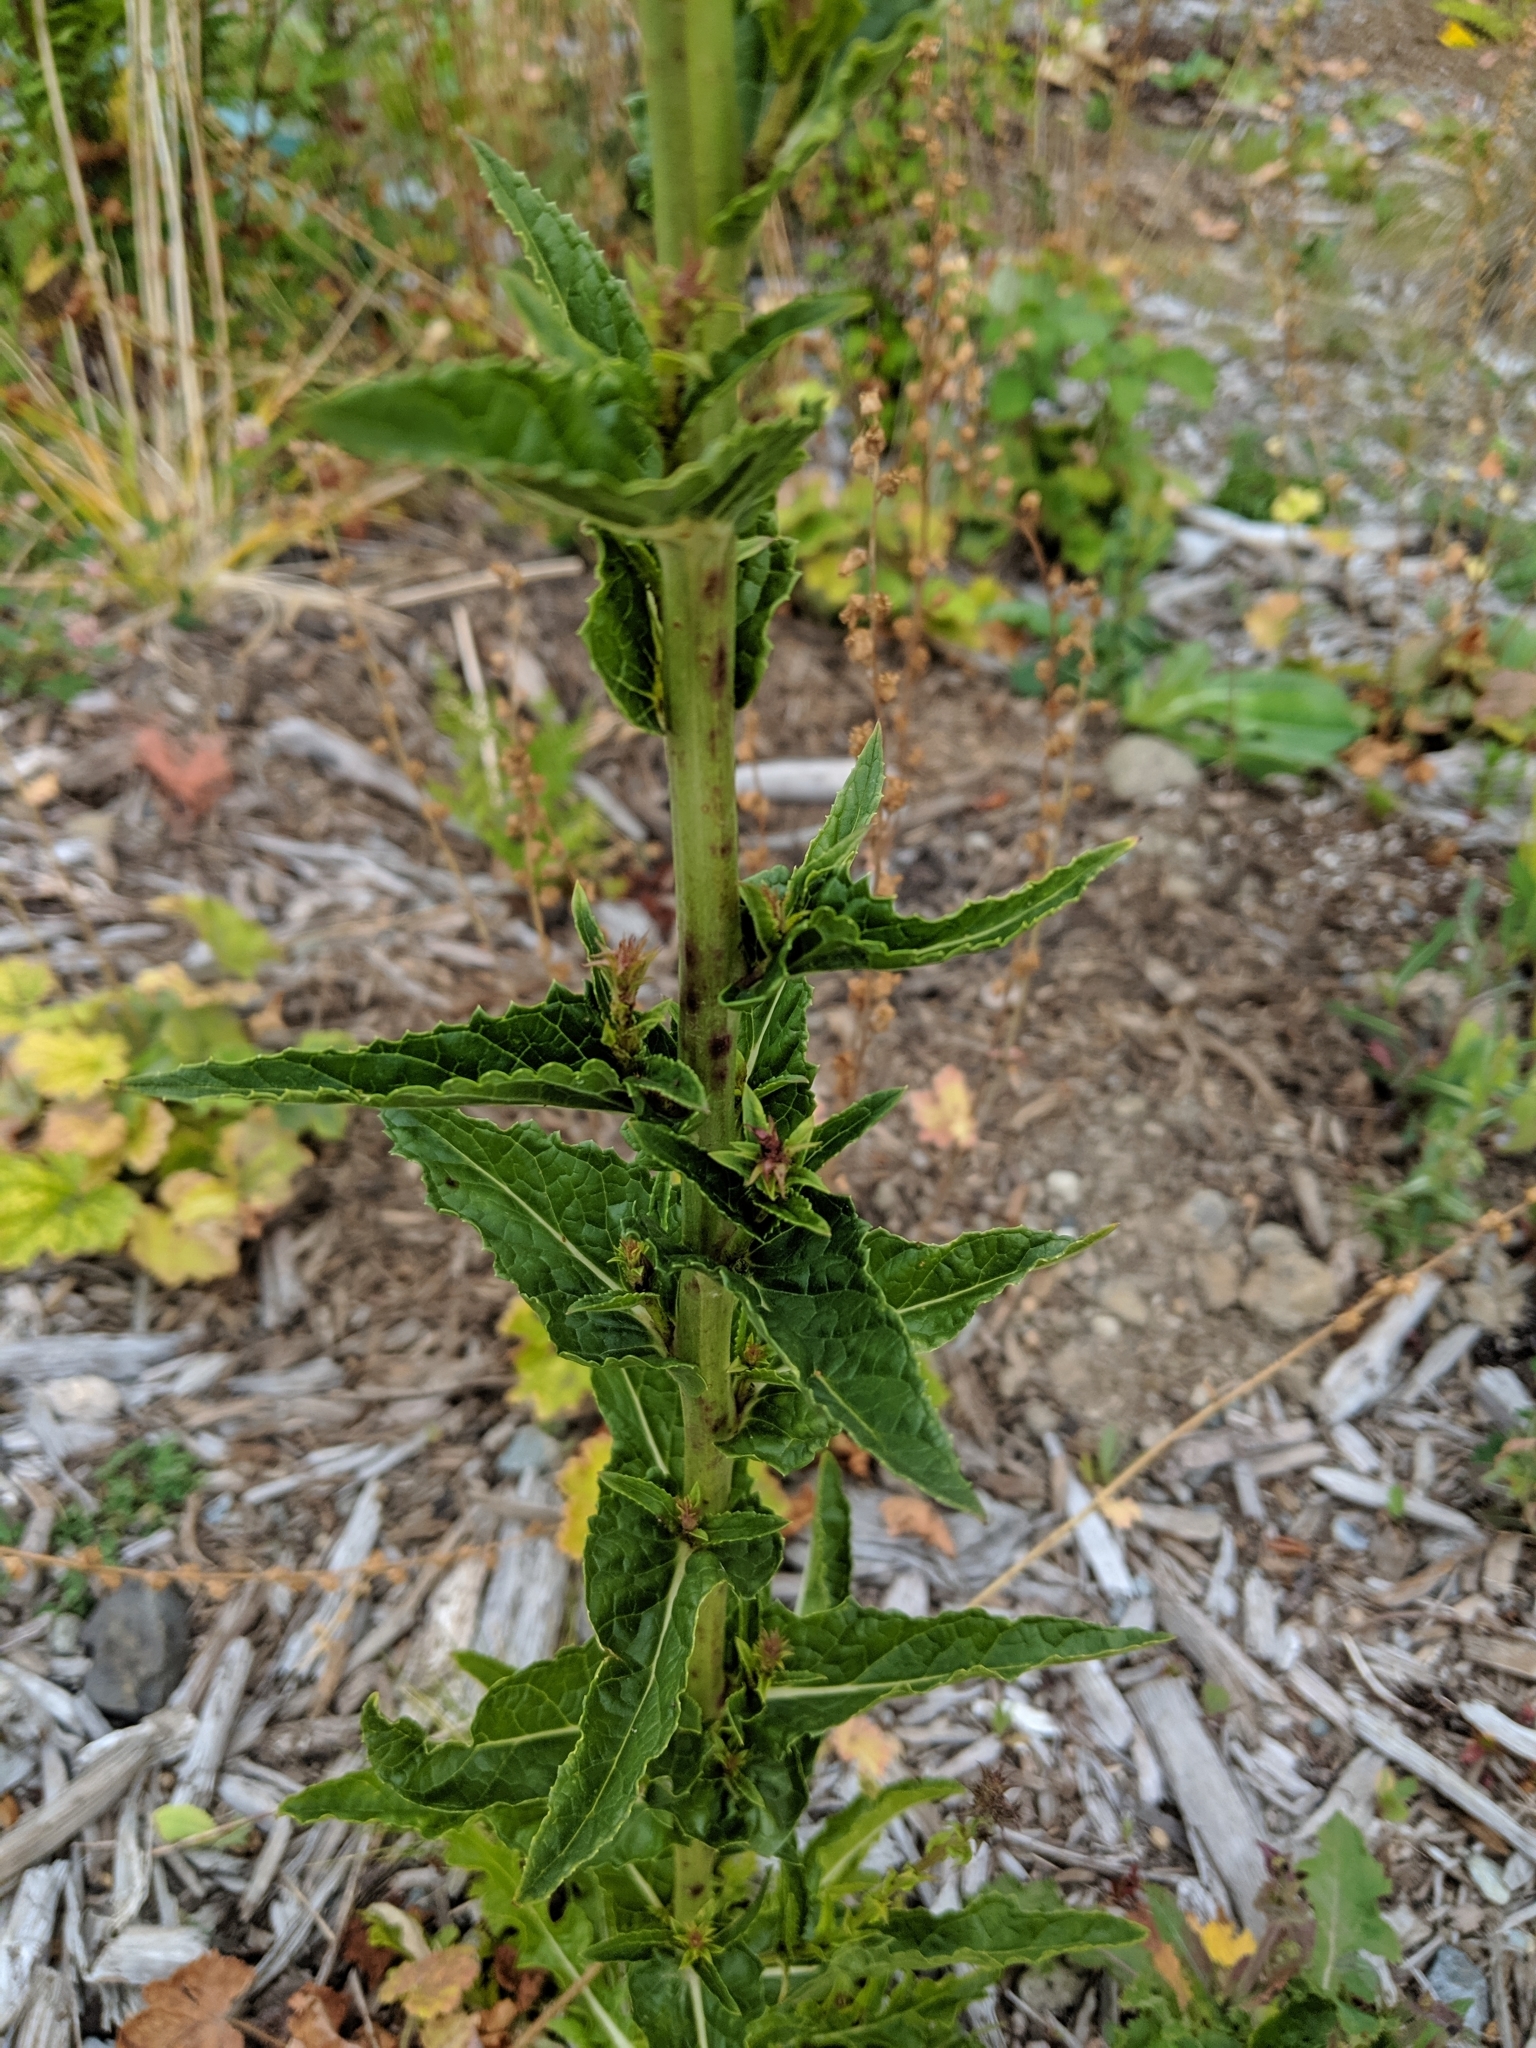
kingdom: Plantae
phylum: Tracheophyta
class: Magnoliopsida
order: Lamiales
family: Scrophulariaceae
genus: Verbascum
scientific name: Verbascum blattaria
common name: Moth mullein
